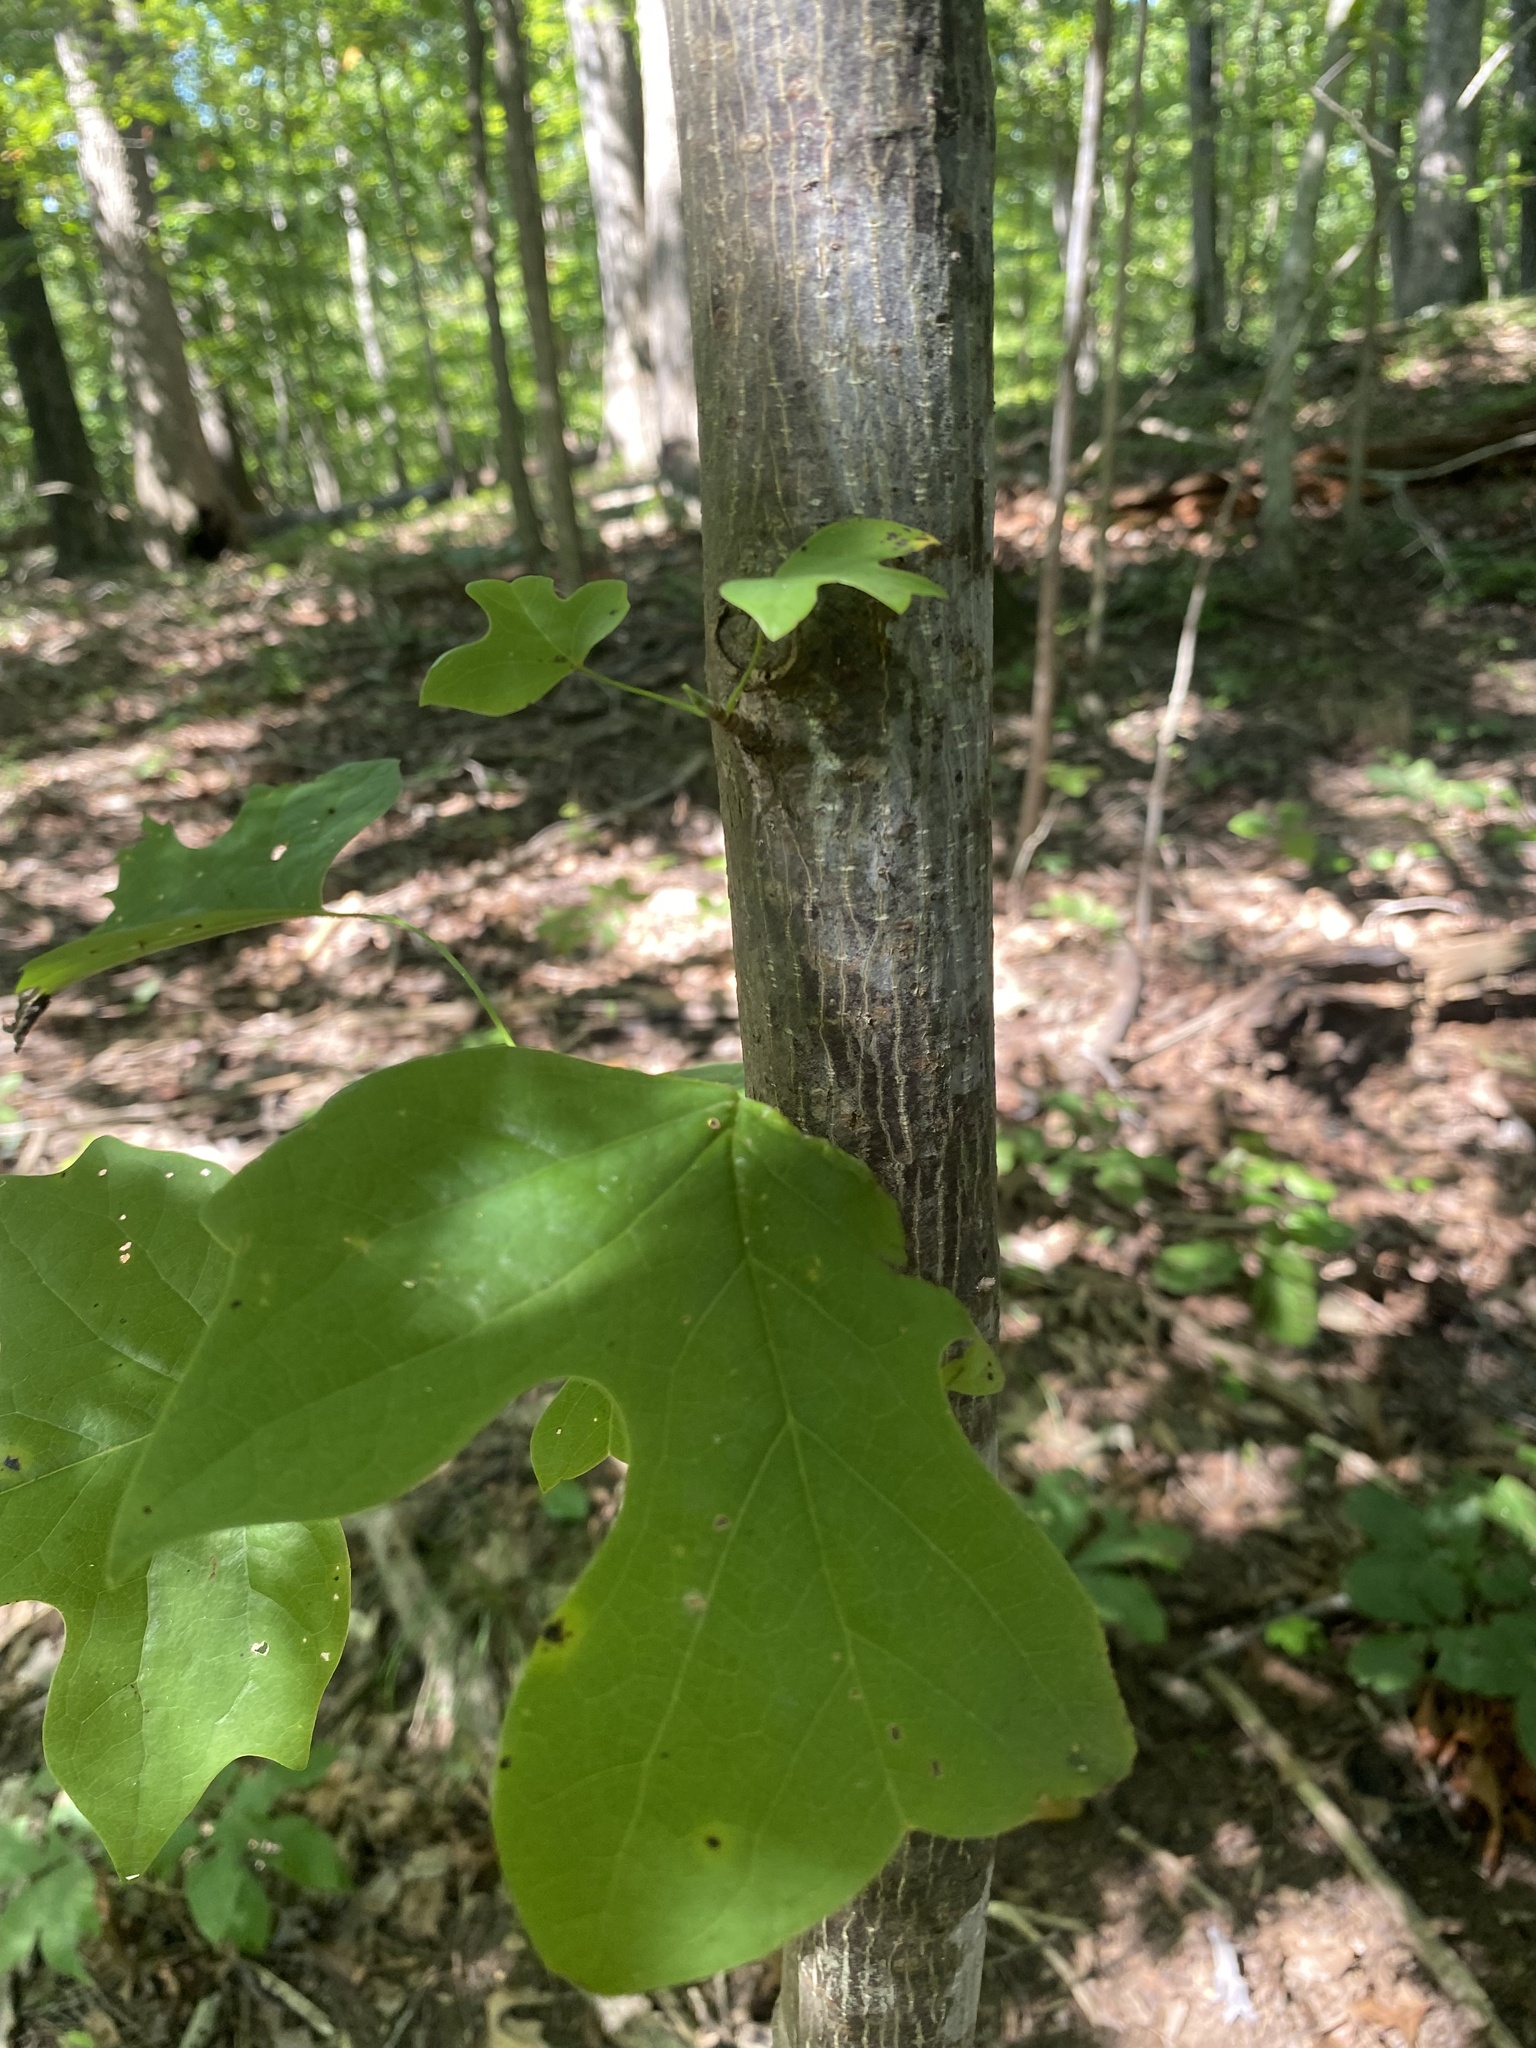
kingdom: Plantae
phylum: Tracheophyta
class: Magnoliopsida
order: Magnoliales
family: Magnoliaceae
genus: Liriodendron
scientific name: Liriodendron tulipifera
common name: Tulip tree
